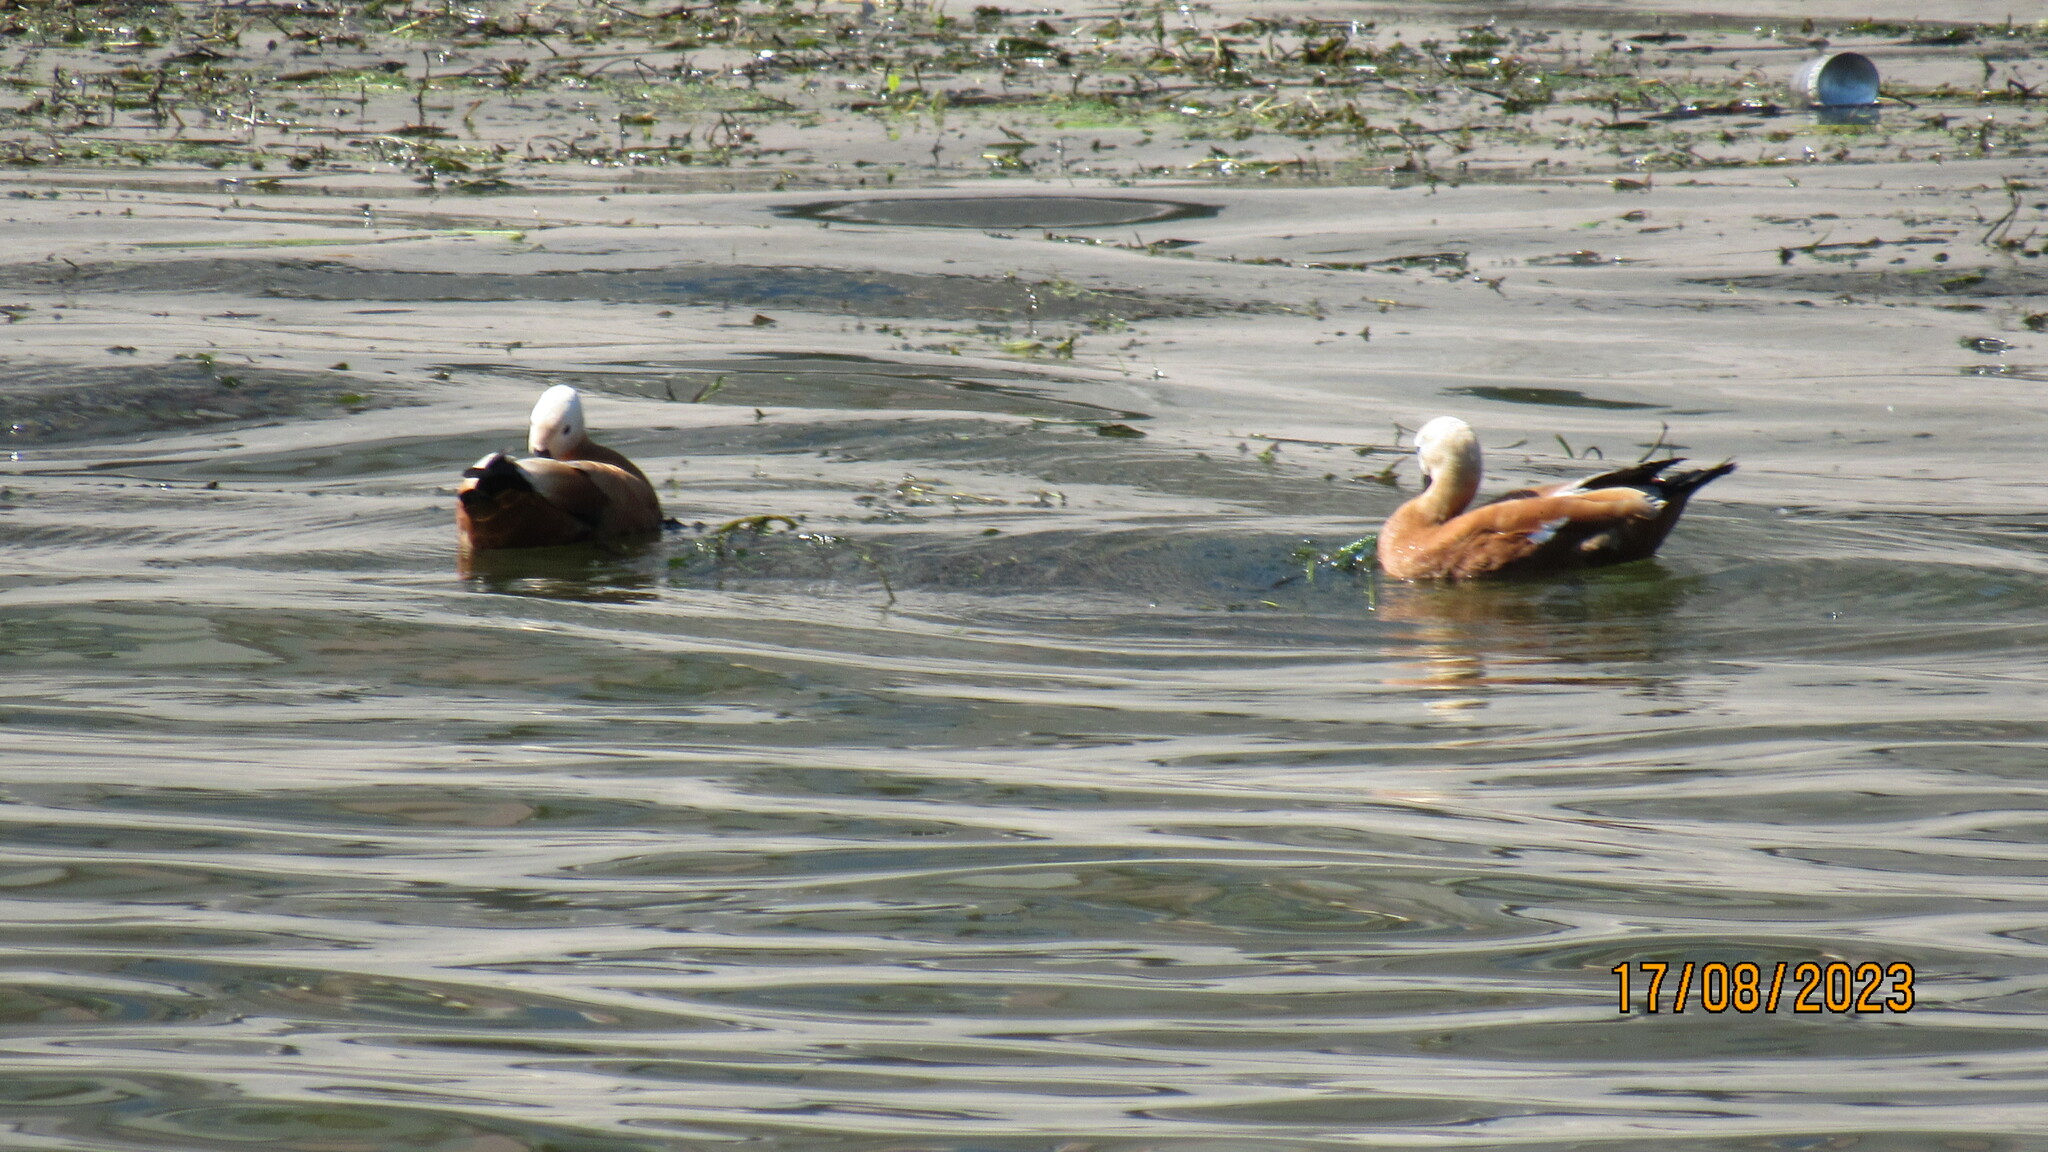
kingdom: Animalia
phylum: Chordata
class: Aves
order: Anseriformes
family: Anatidae
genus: Tadorna
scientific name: Tadorna ferruginea
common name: Ruddy shelduck
